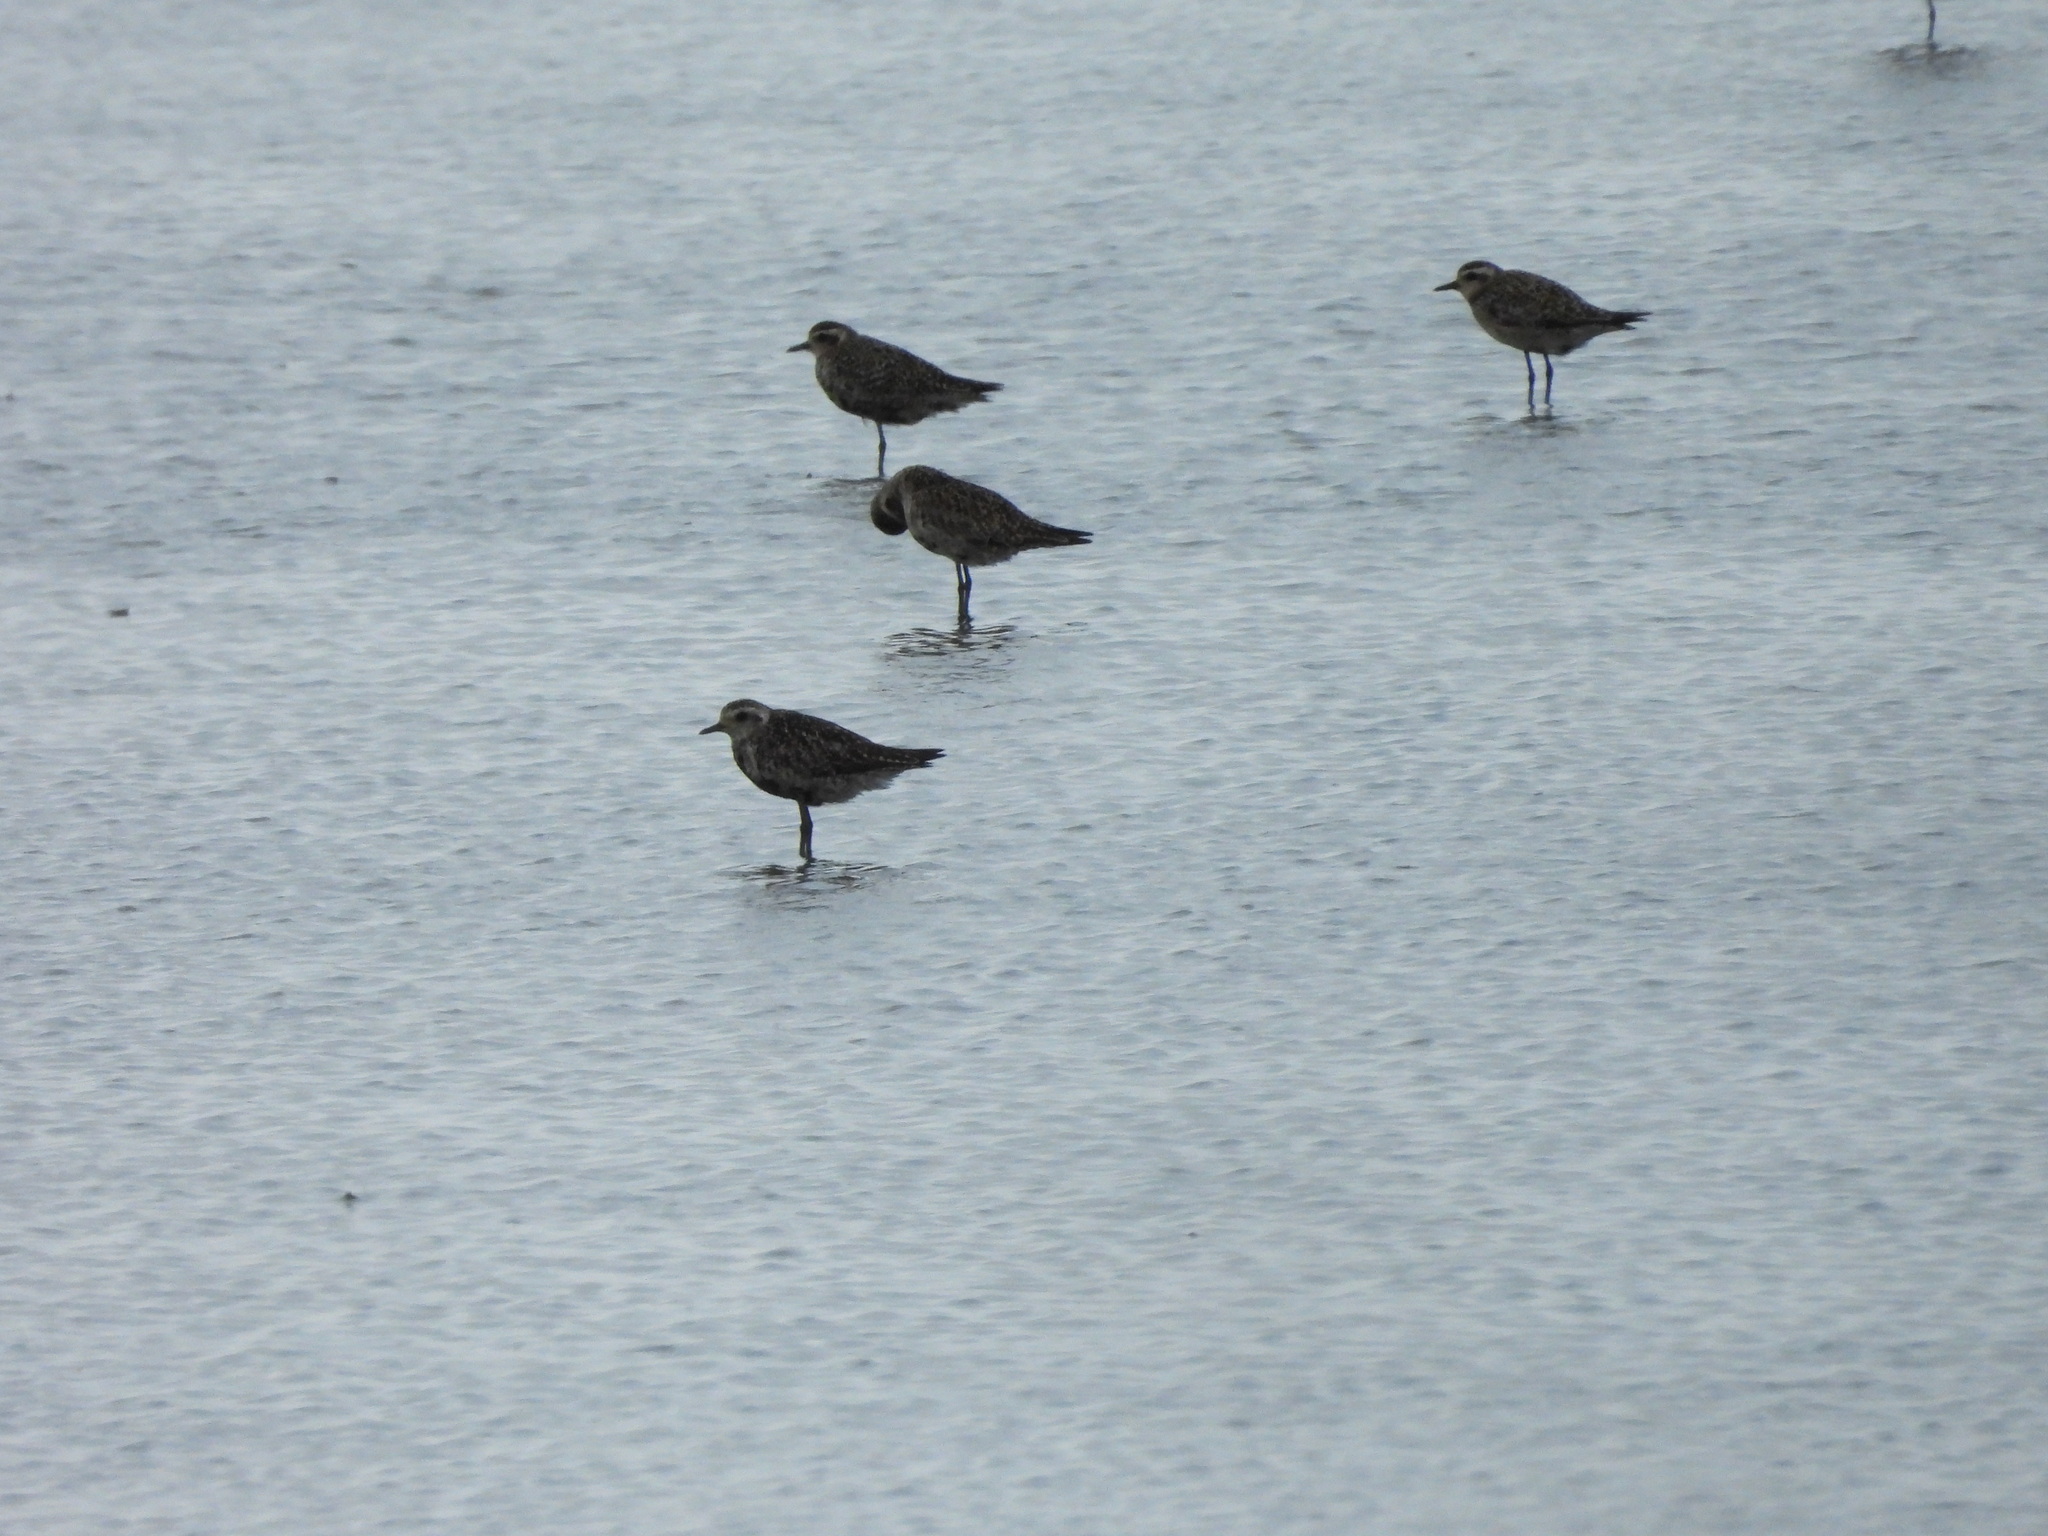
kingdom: Animalia
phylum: Chordata
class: Aves
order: Charadriiformes
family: Charadriidae
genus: Pluvialis
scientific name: Pluvialis fulva
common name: Pacific golden plover
